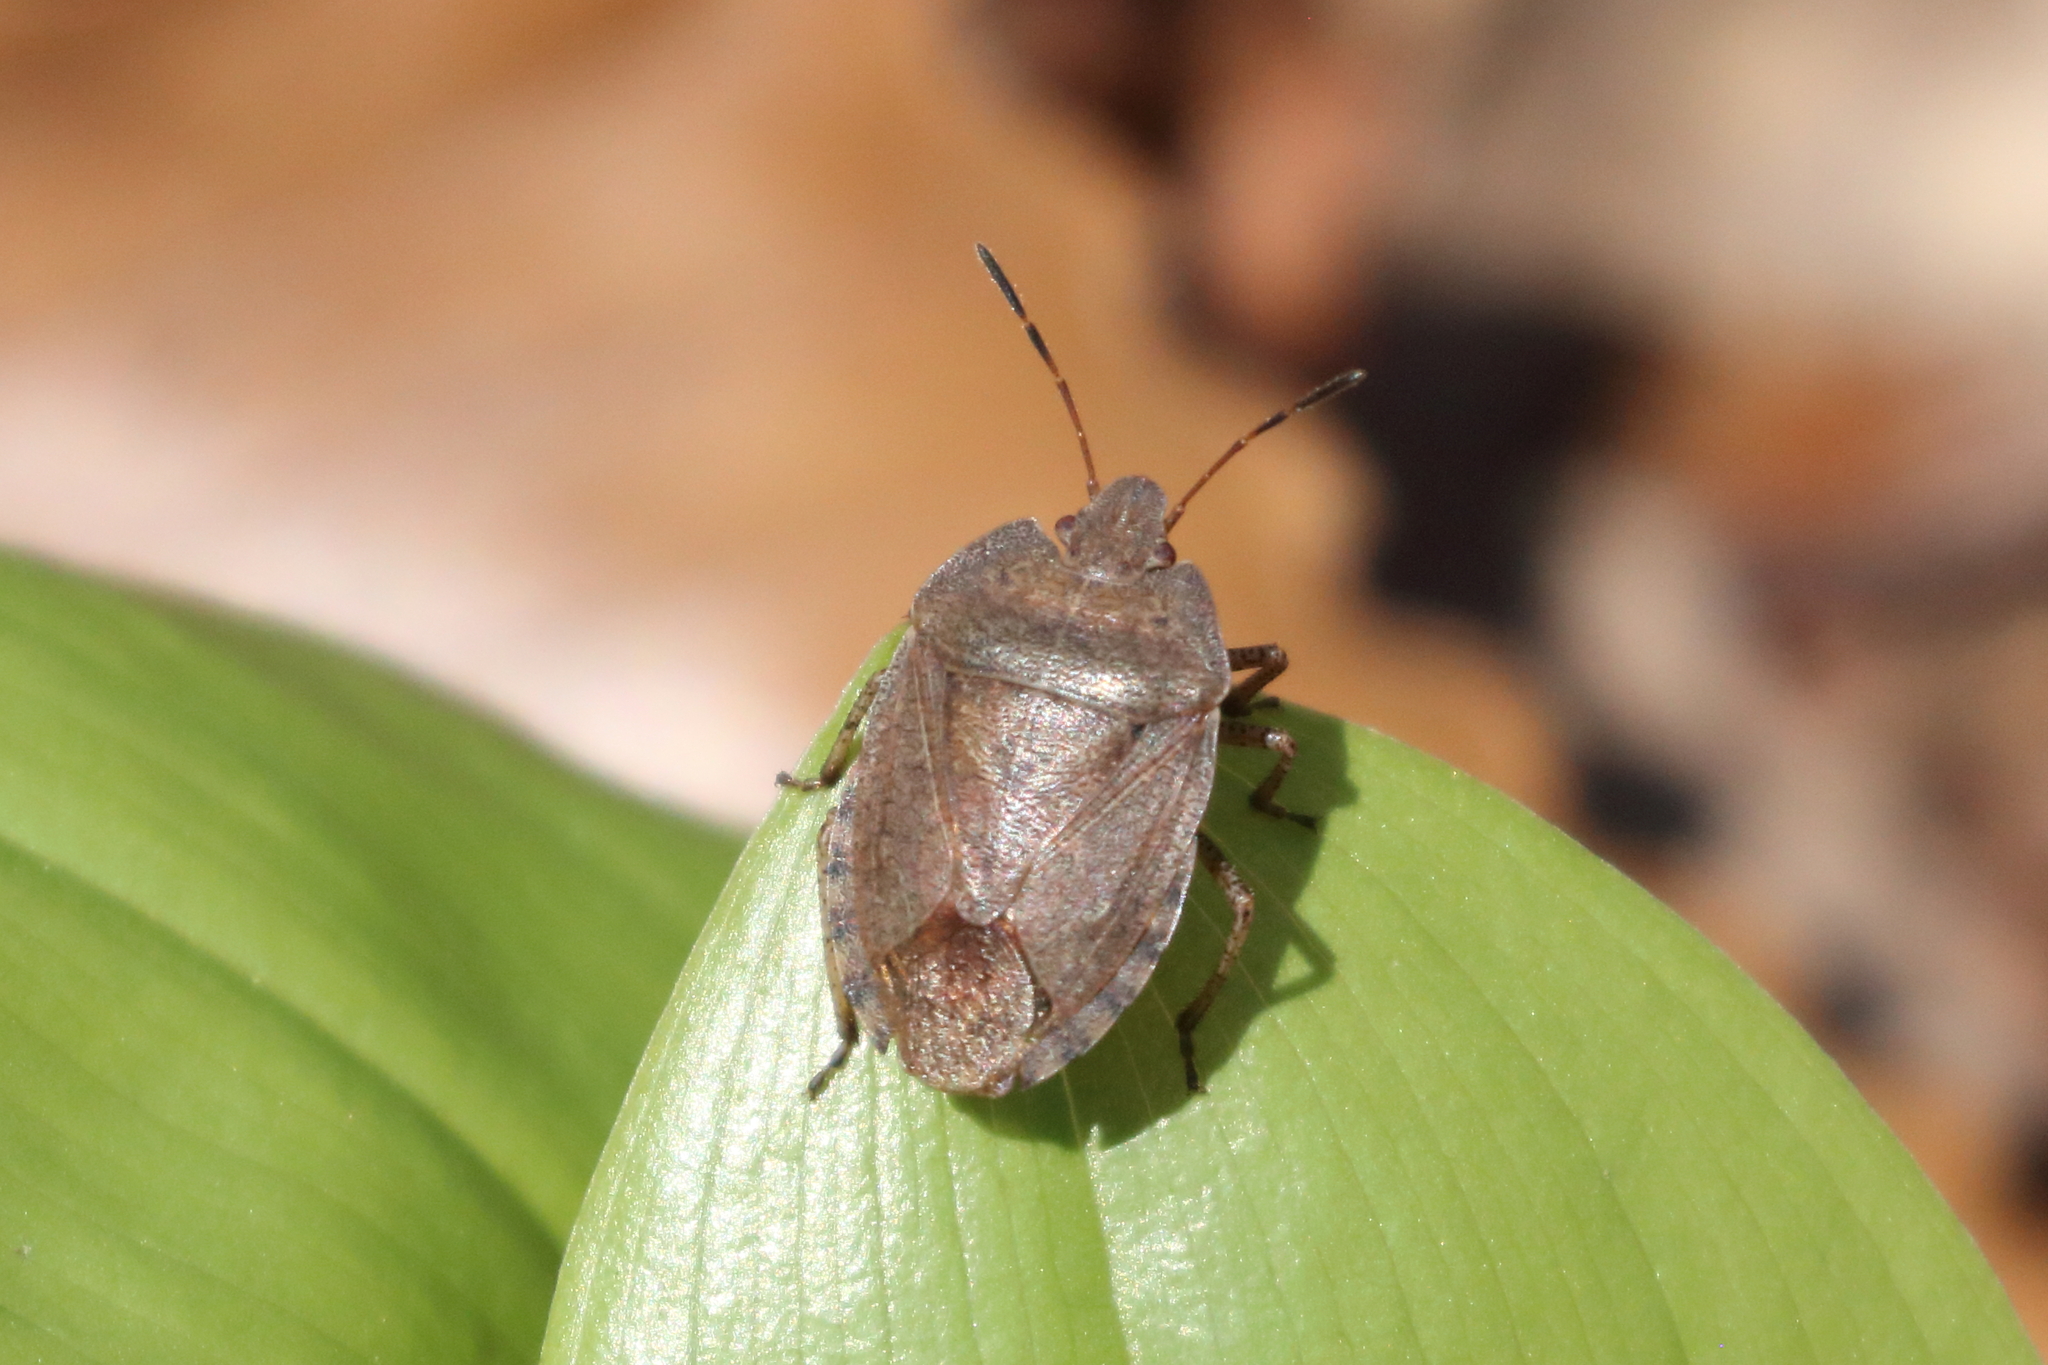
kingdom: Animalia
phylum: Arthropoda
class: Insecta
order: Hemiptera
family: Pentatomidae
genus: Menecles
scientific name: Menecles insertus
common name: Elf shoe stink bug
